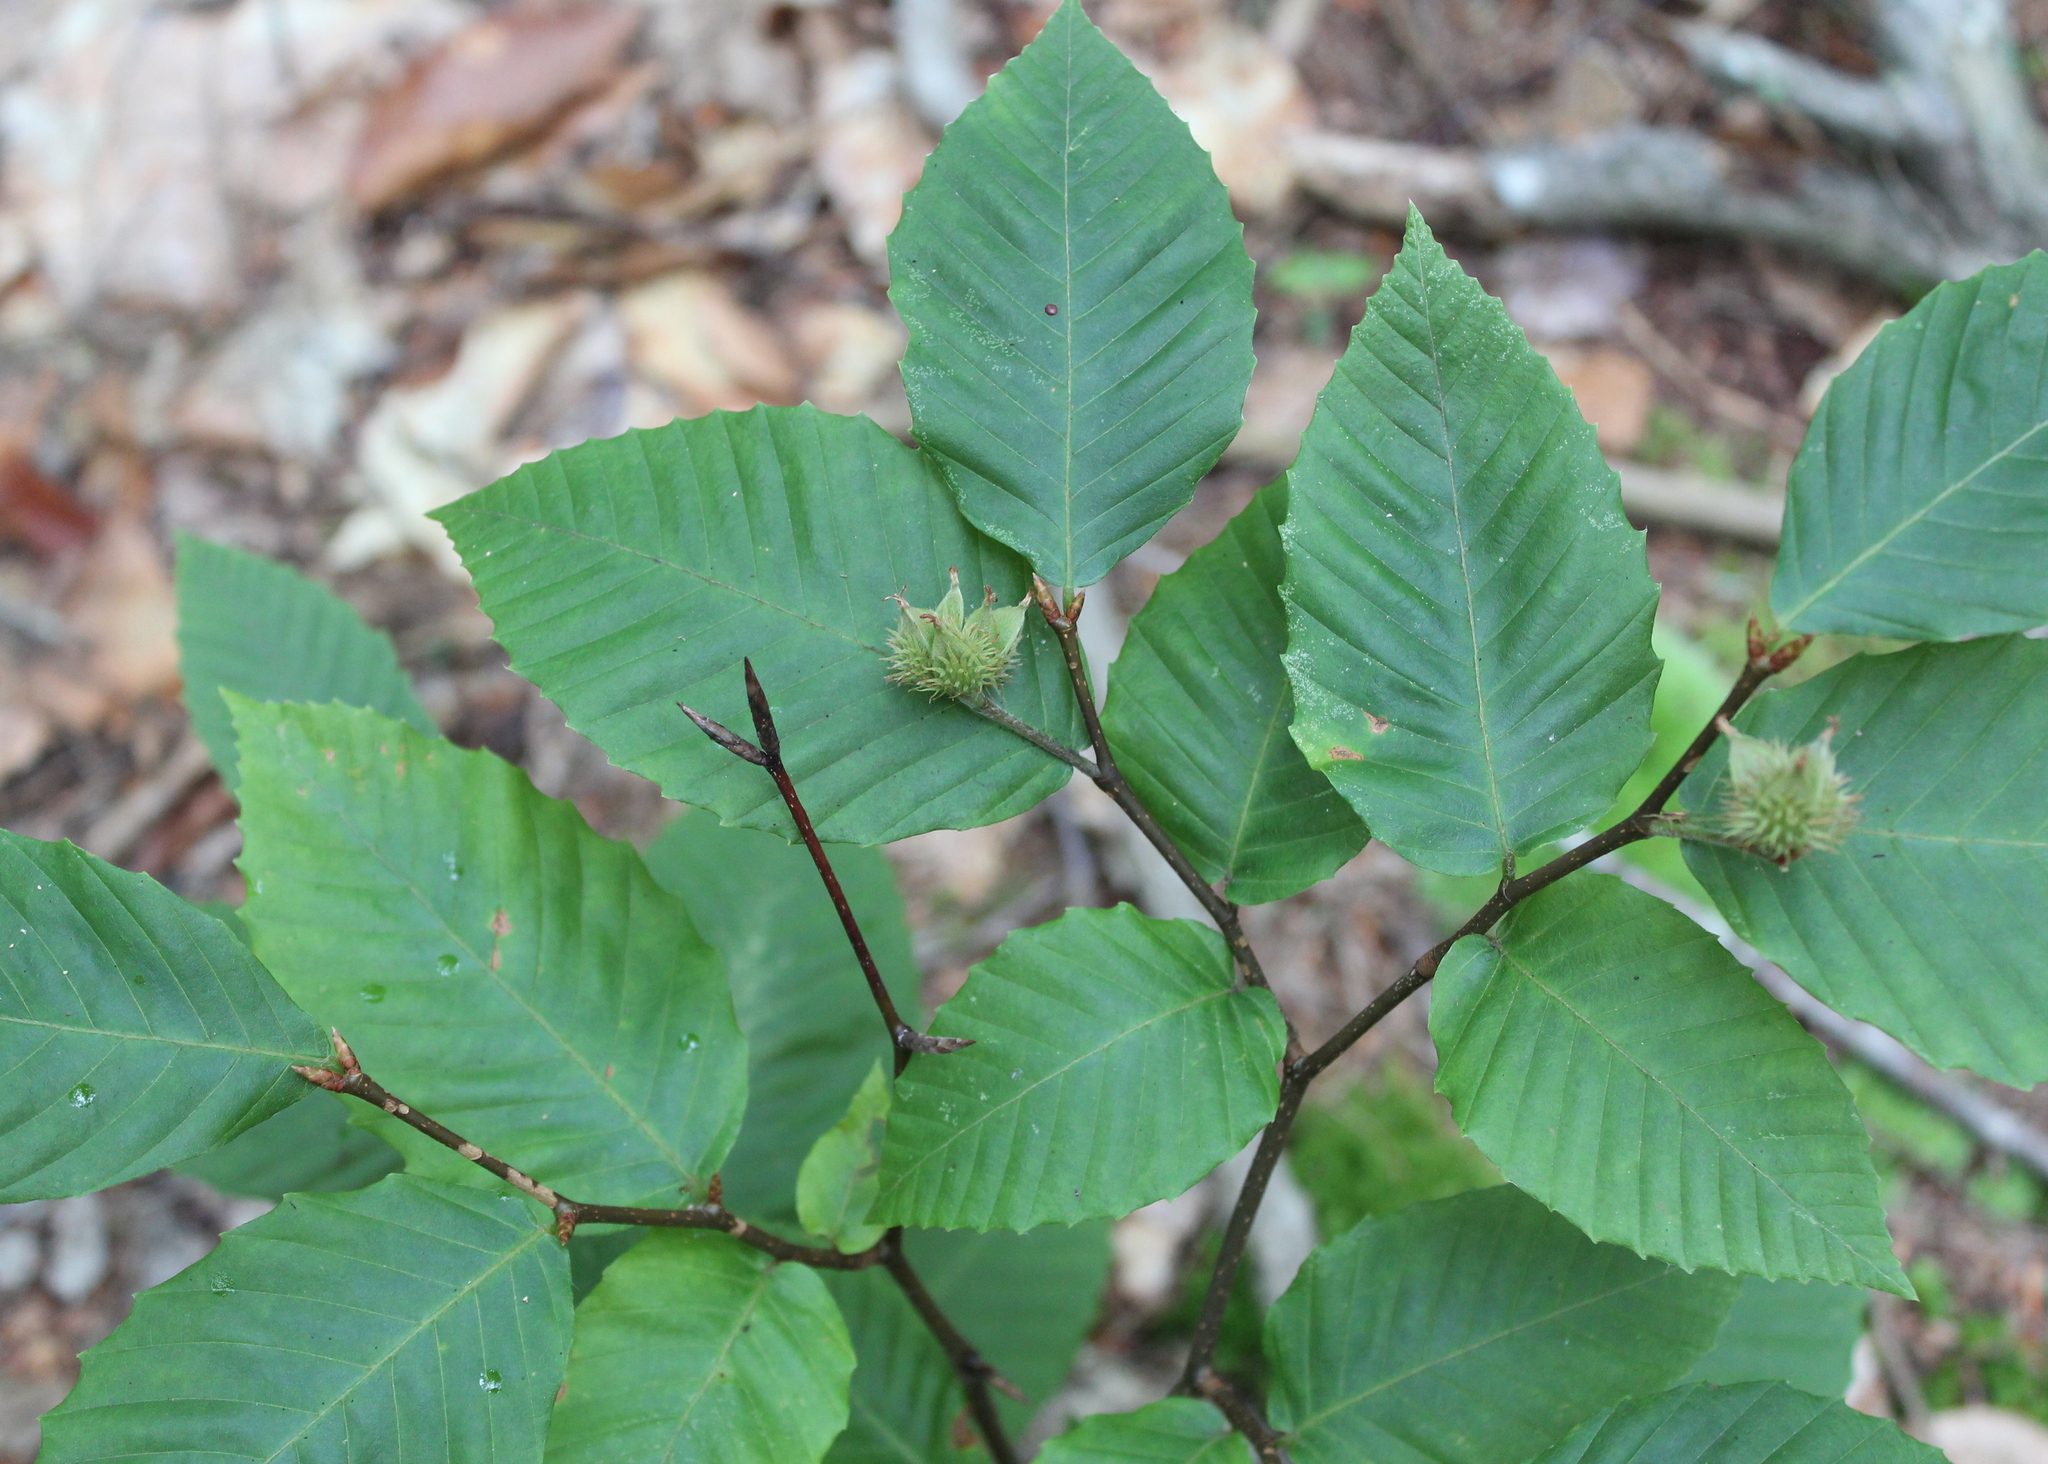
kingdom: Plantae
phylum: Tracheophyta
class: Magnoliopsida
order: Fagales
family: Fagaceae
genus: Fagus
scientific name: Fagus grandifolia
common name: American beech
